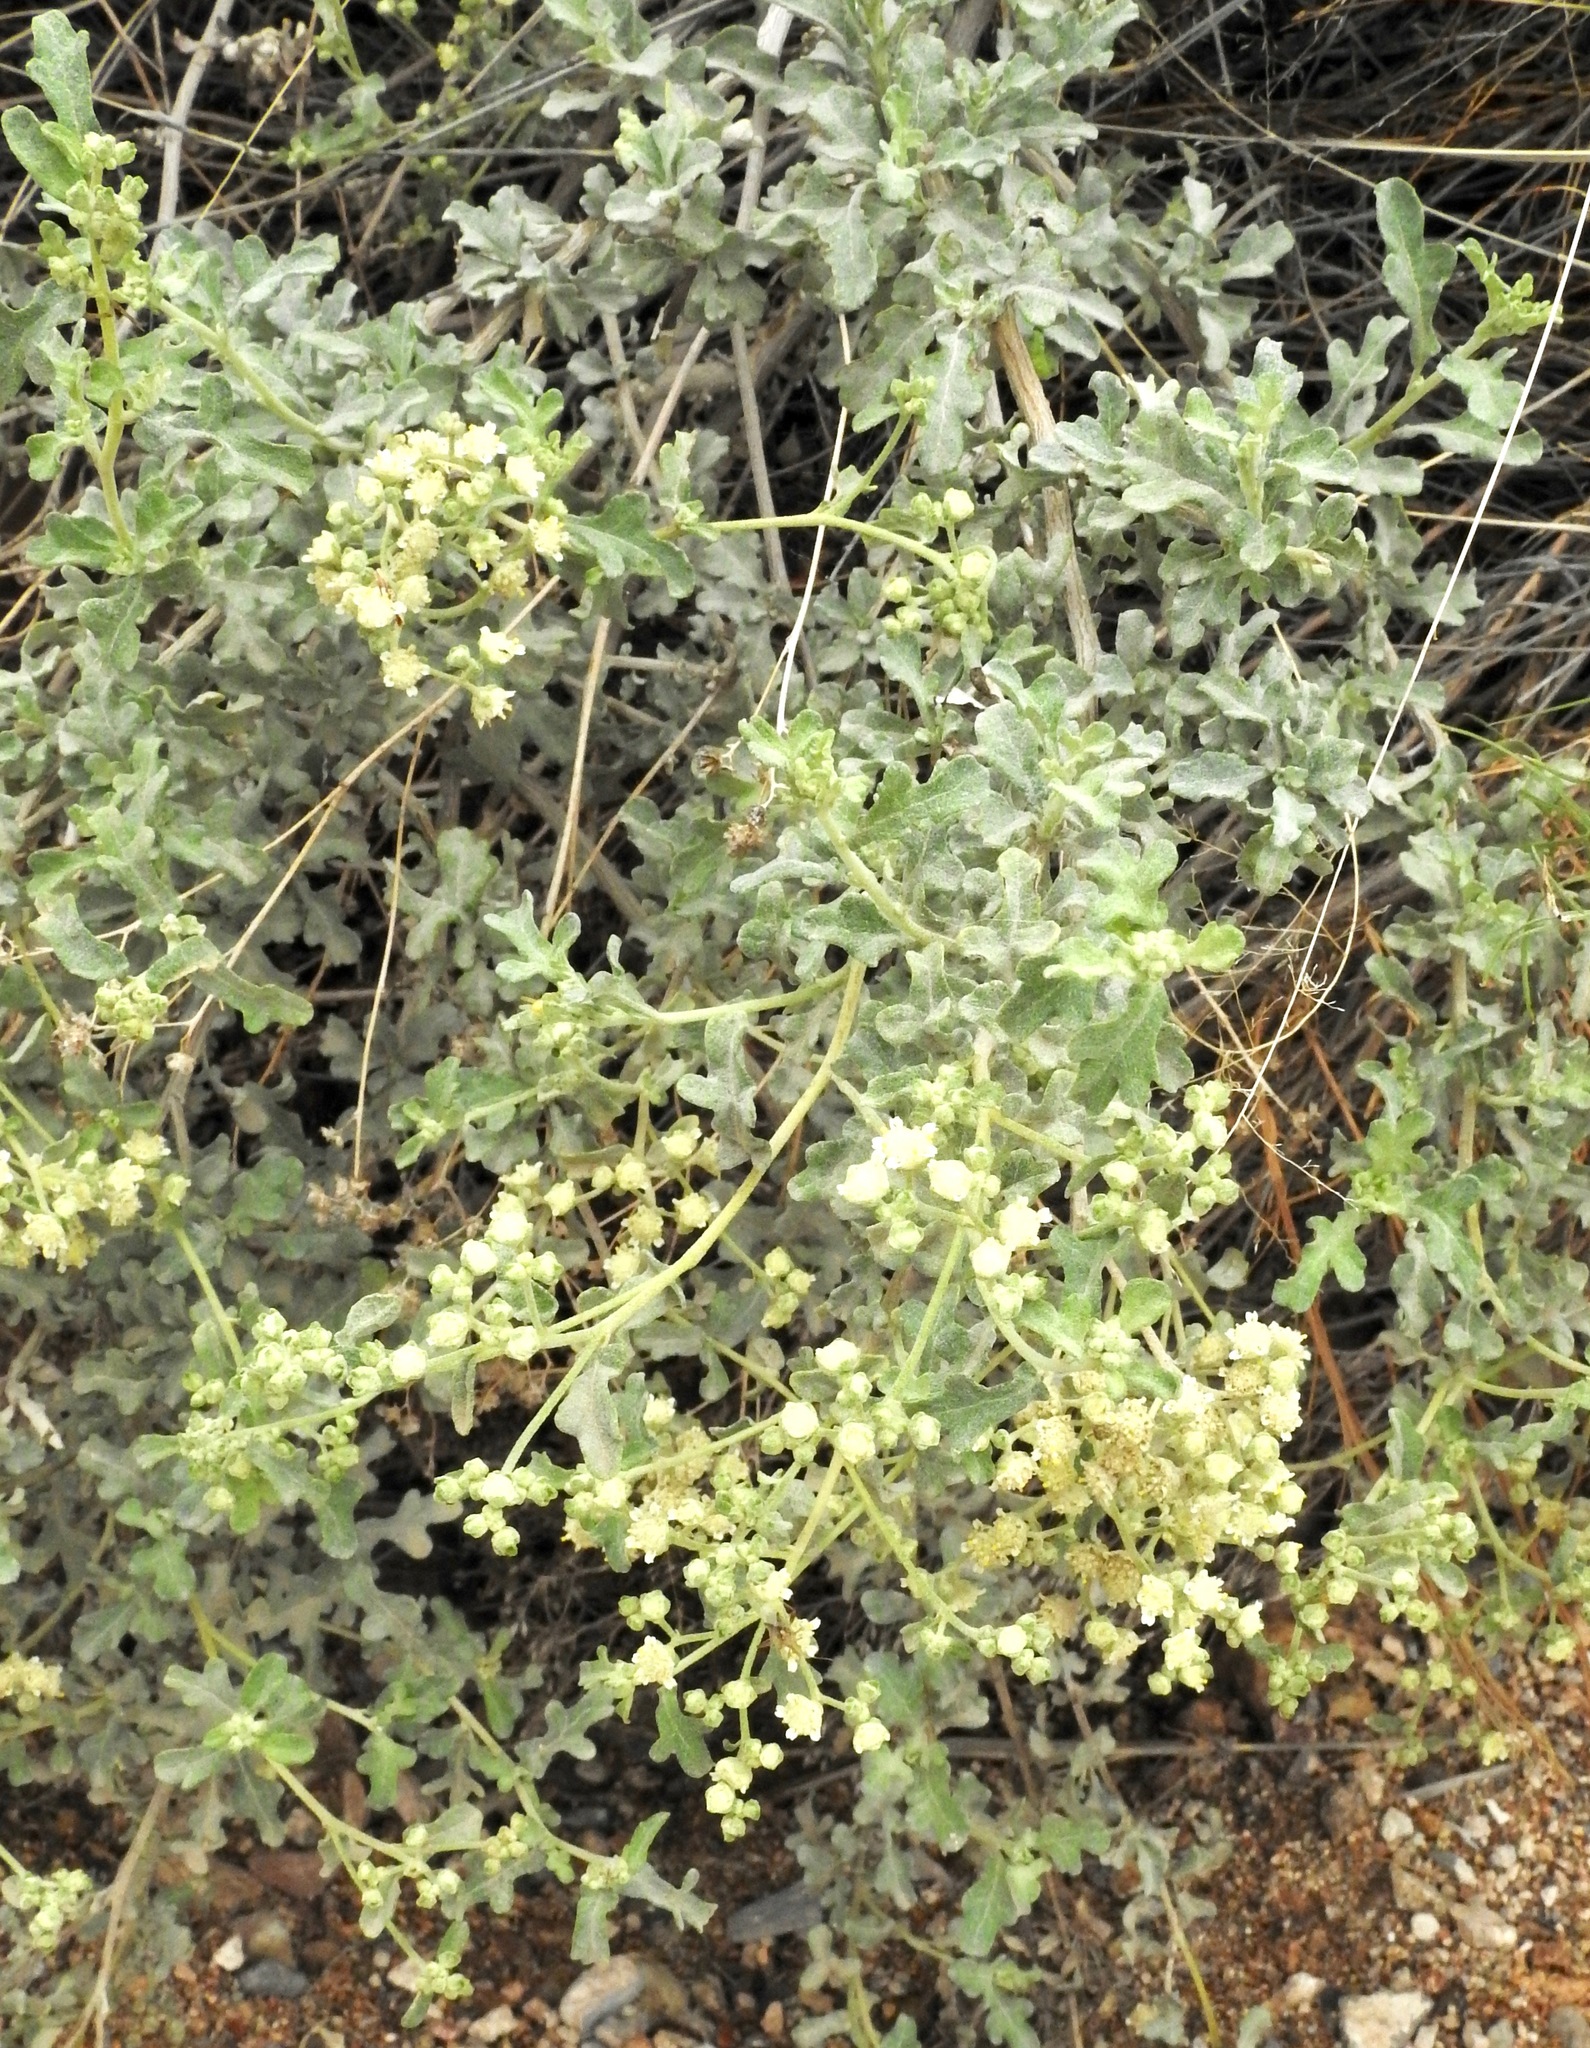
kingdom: Plantae
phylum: Tracheophyta
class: Magnoliopsida
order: Asterales
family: Asteraceae
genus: Parthenium
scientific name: Parthenium incanum
